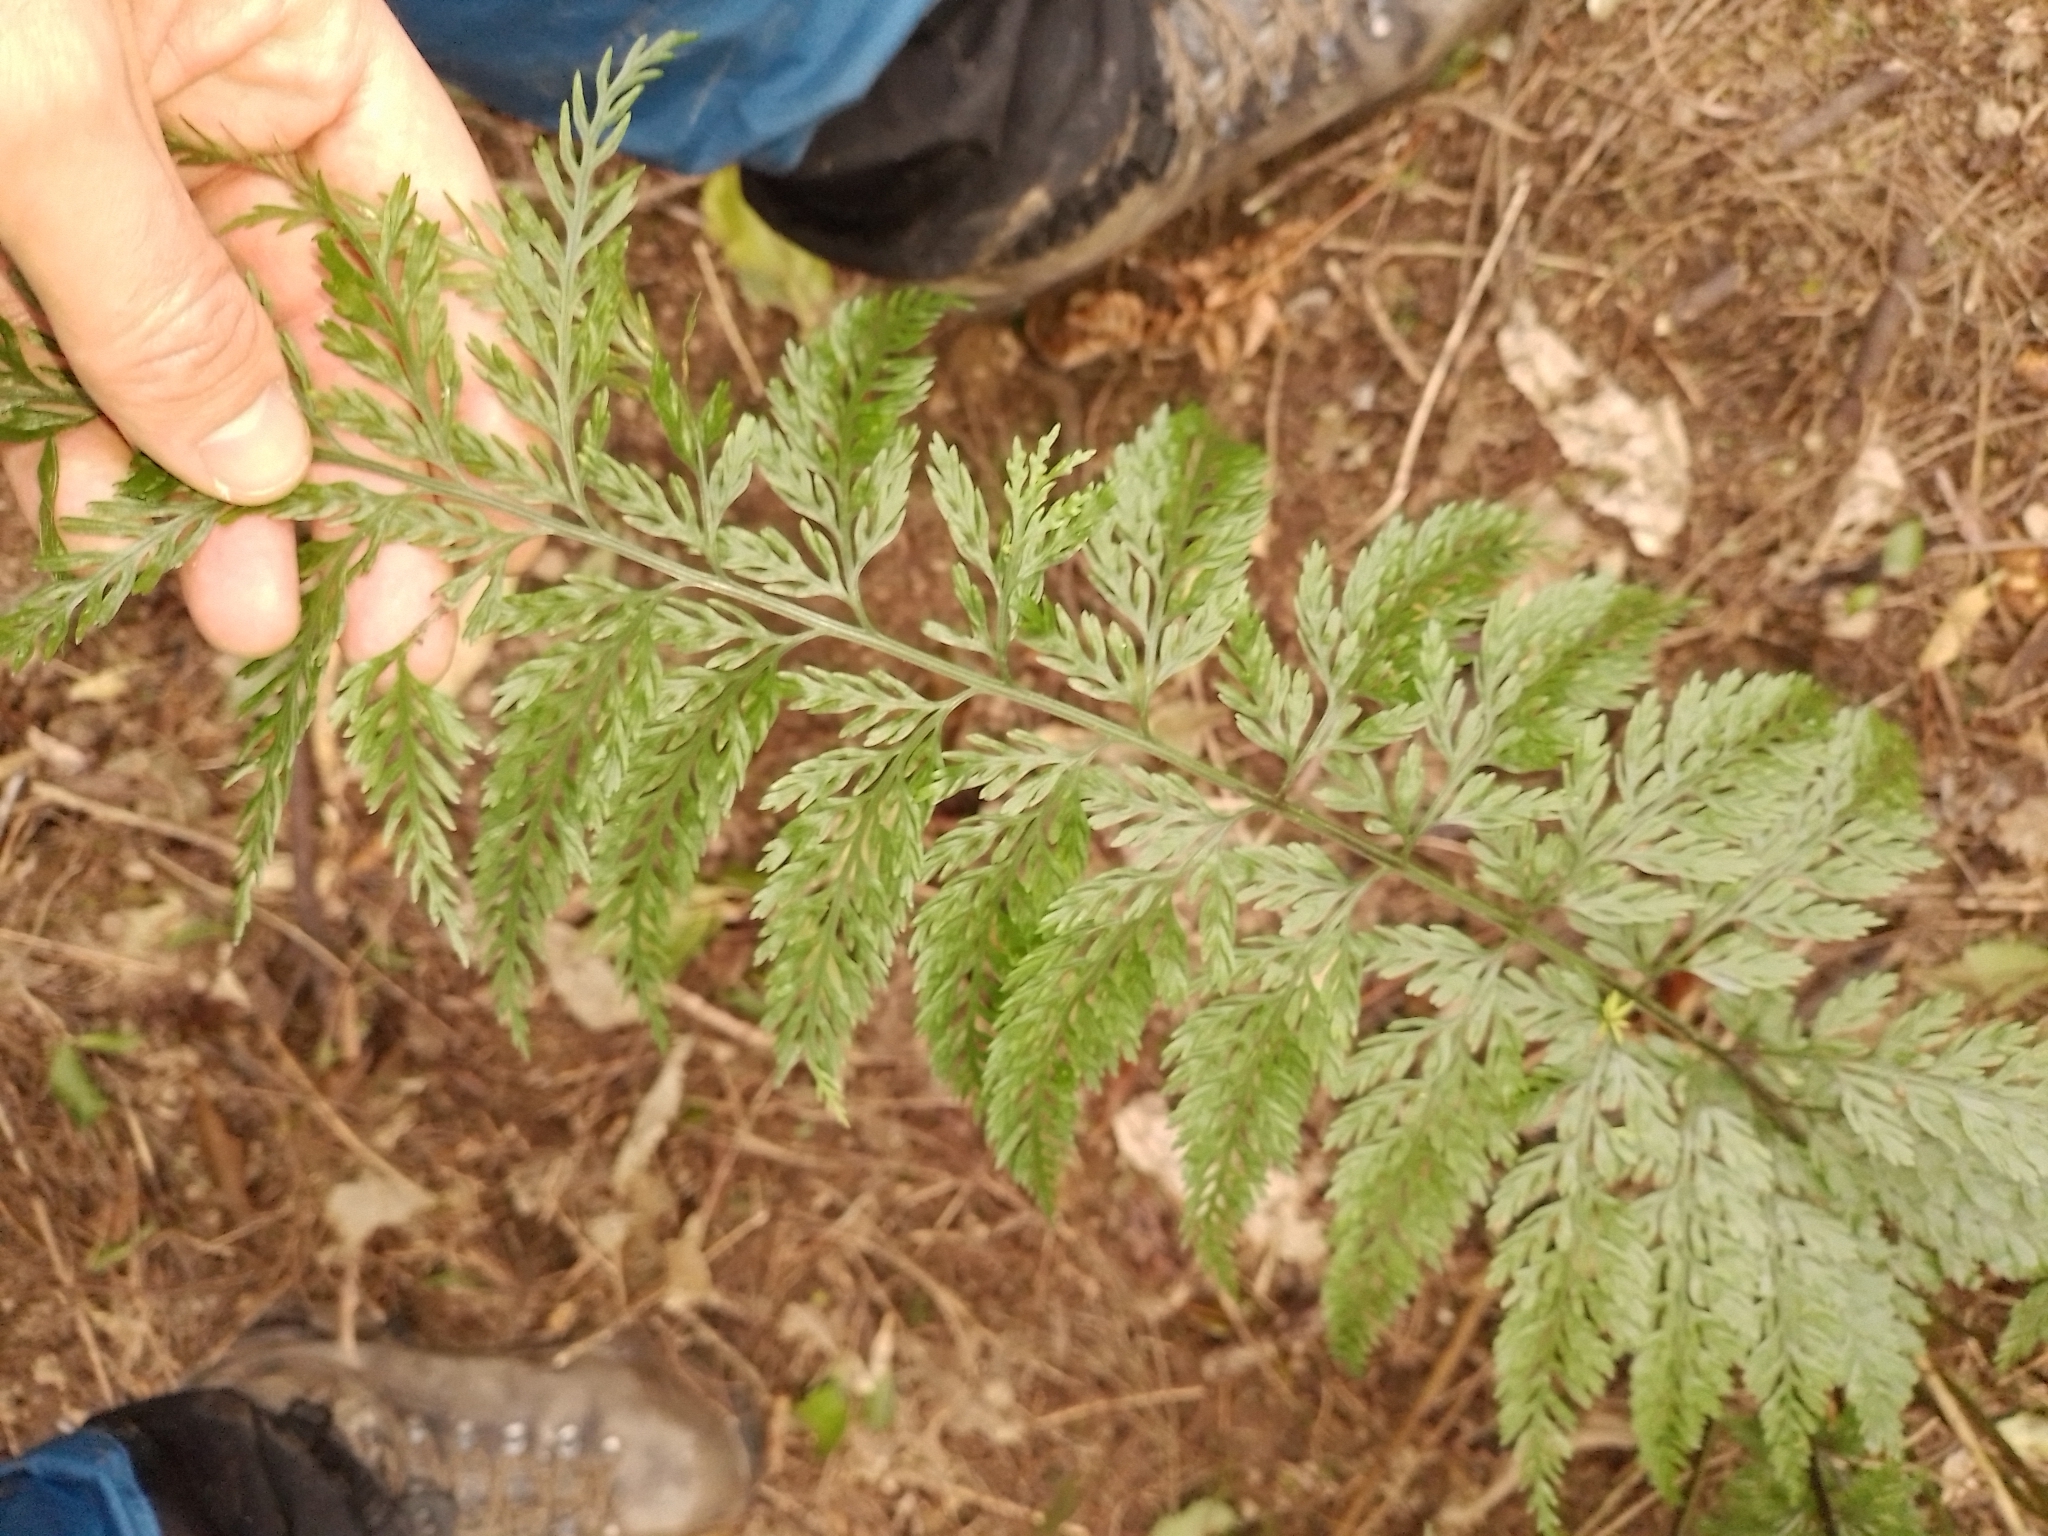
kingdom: Plantae
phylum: Tracheophyta
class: Polypodiopsida
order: Polypodiales
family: Aspleniaceae
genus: Asplenium
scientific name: Asplenium
